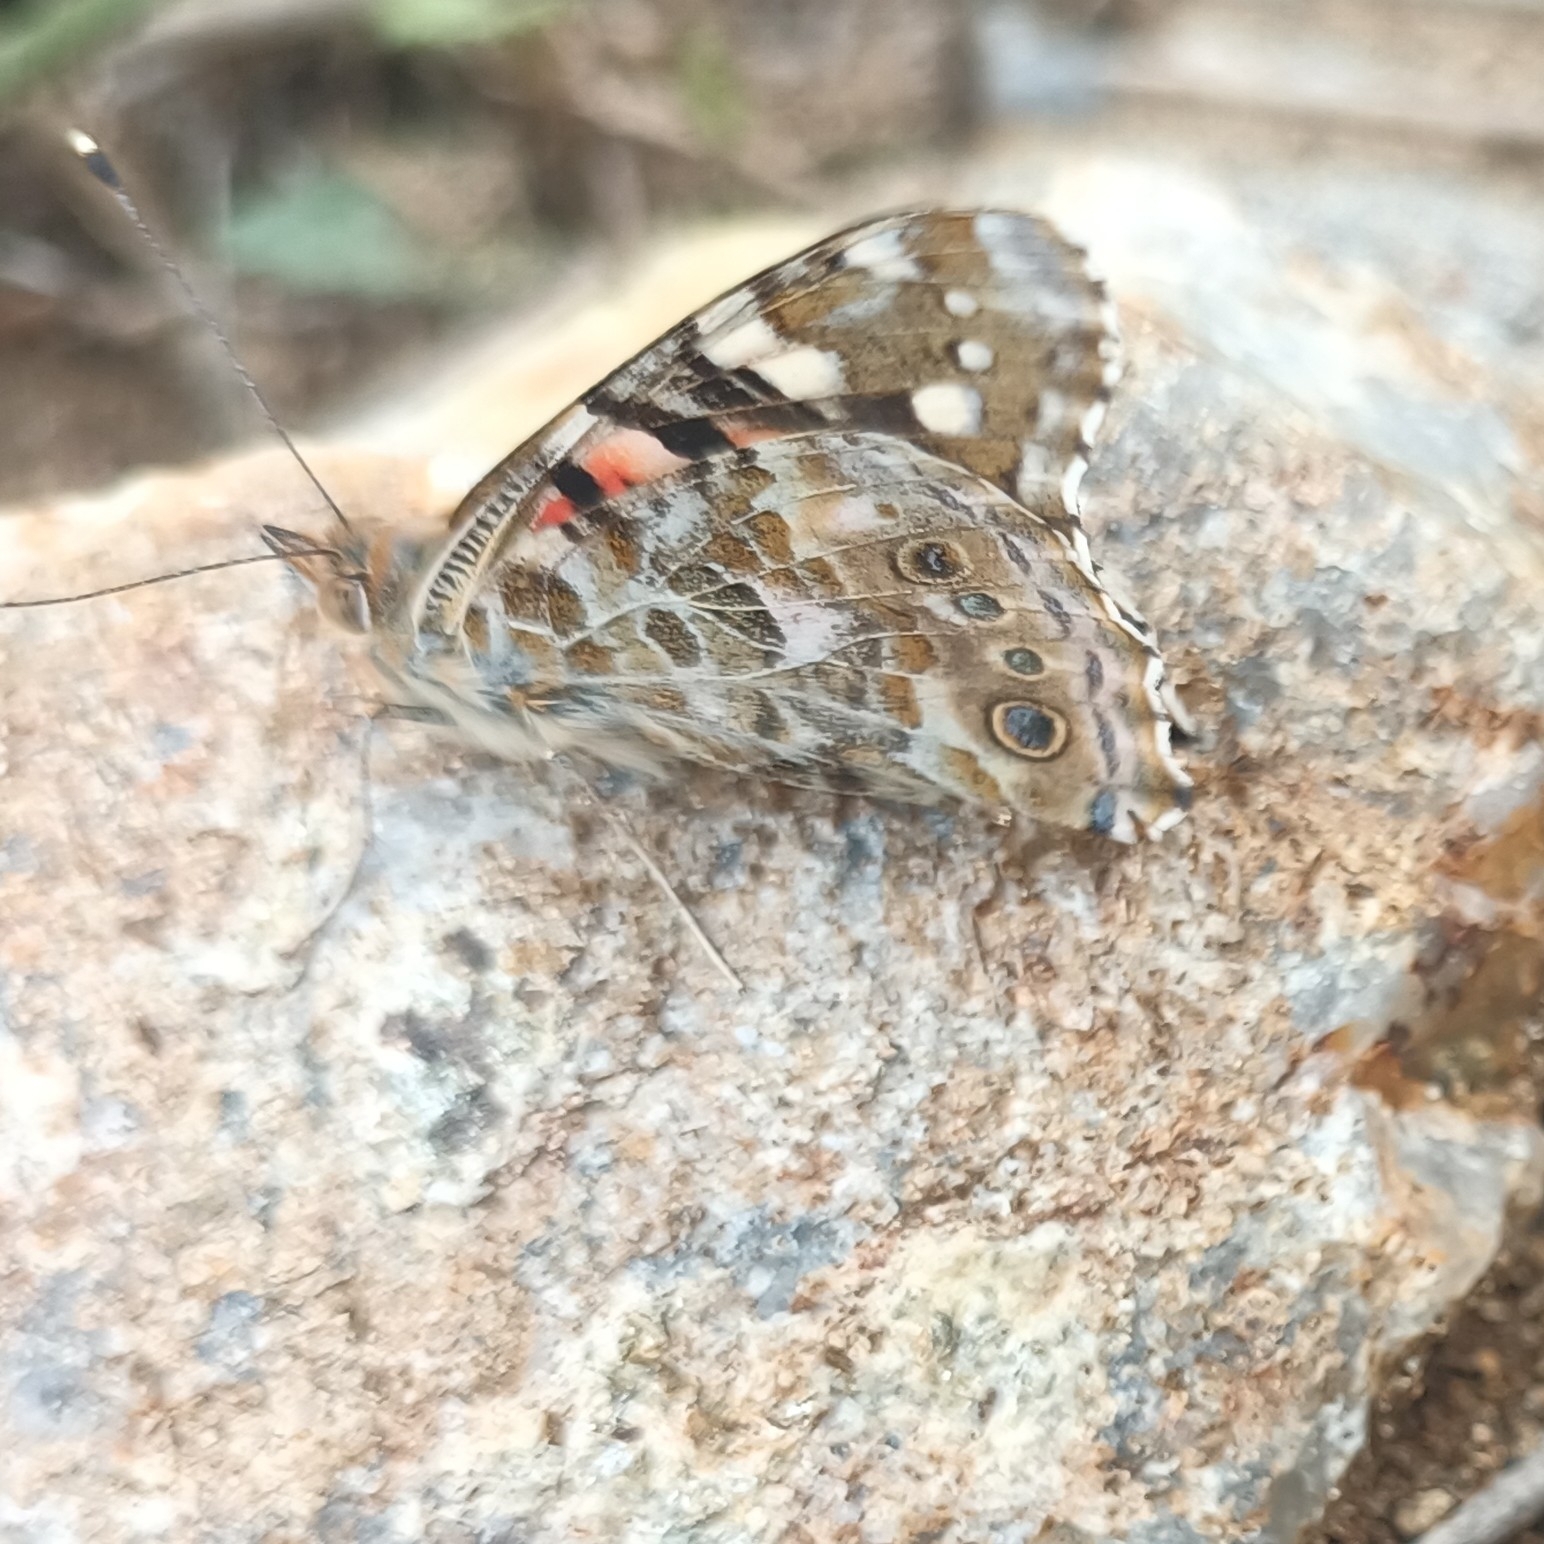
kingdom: Animalia
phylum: Arthropoda
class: Insecta
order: Lepidoptera
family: Nymphalidae
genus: Vanessa
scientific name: Vanessa cardui
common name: Painted lady
